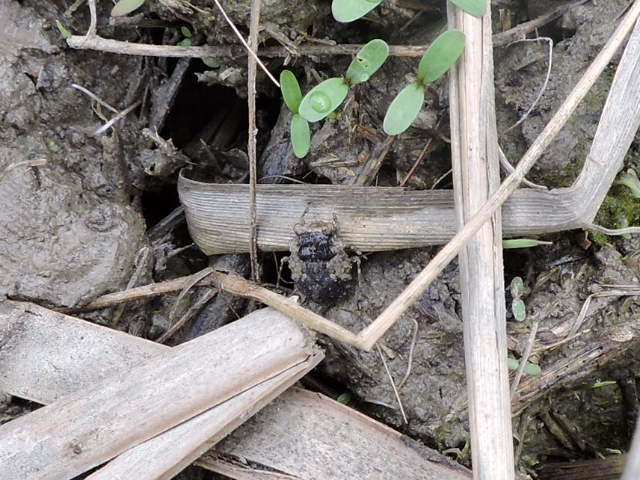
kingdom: Animalia
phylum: Arthropoda
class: Insecta
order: Hemiptera
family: Gelastocoridae
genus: Gelastocoris
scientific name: Gelastocoris oculatus
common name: Toad bug
